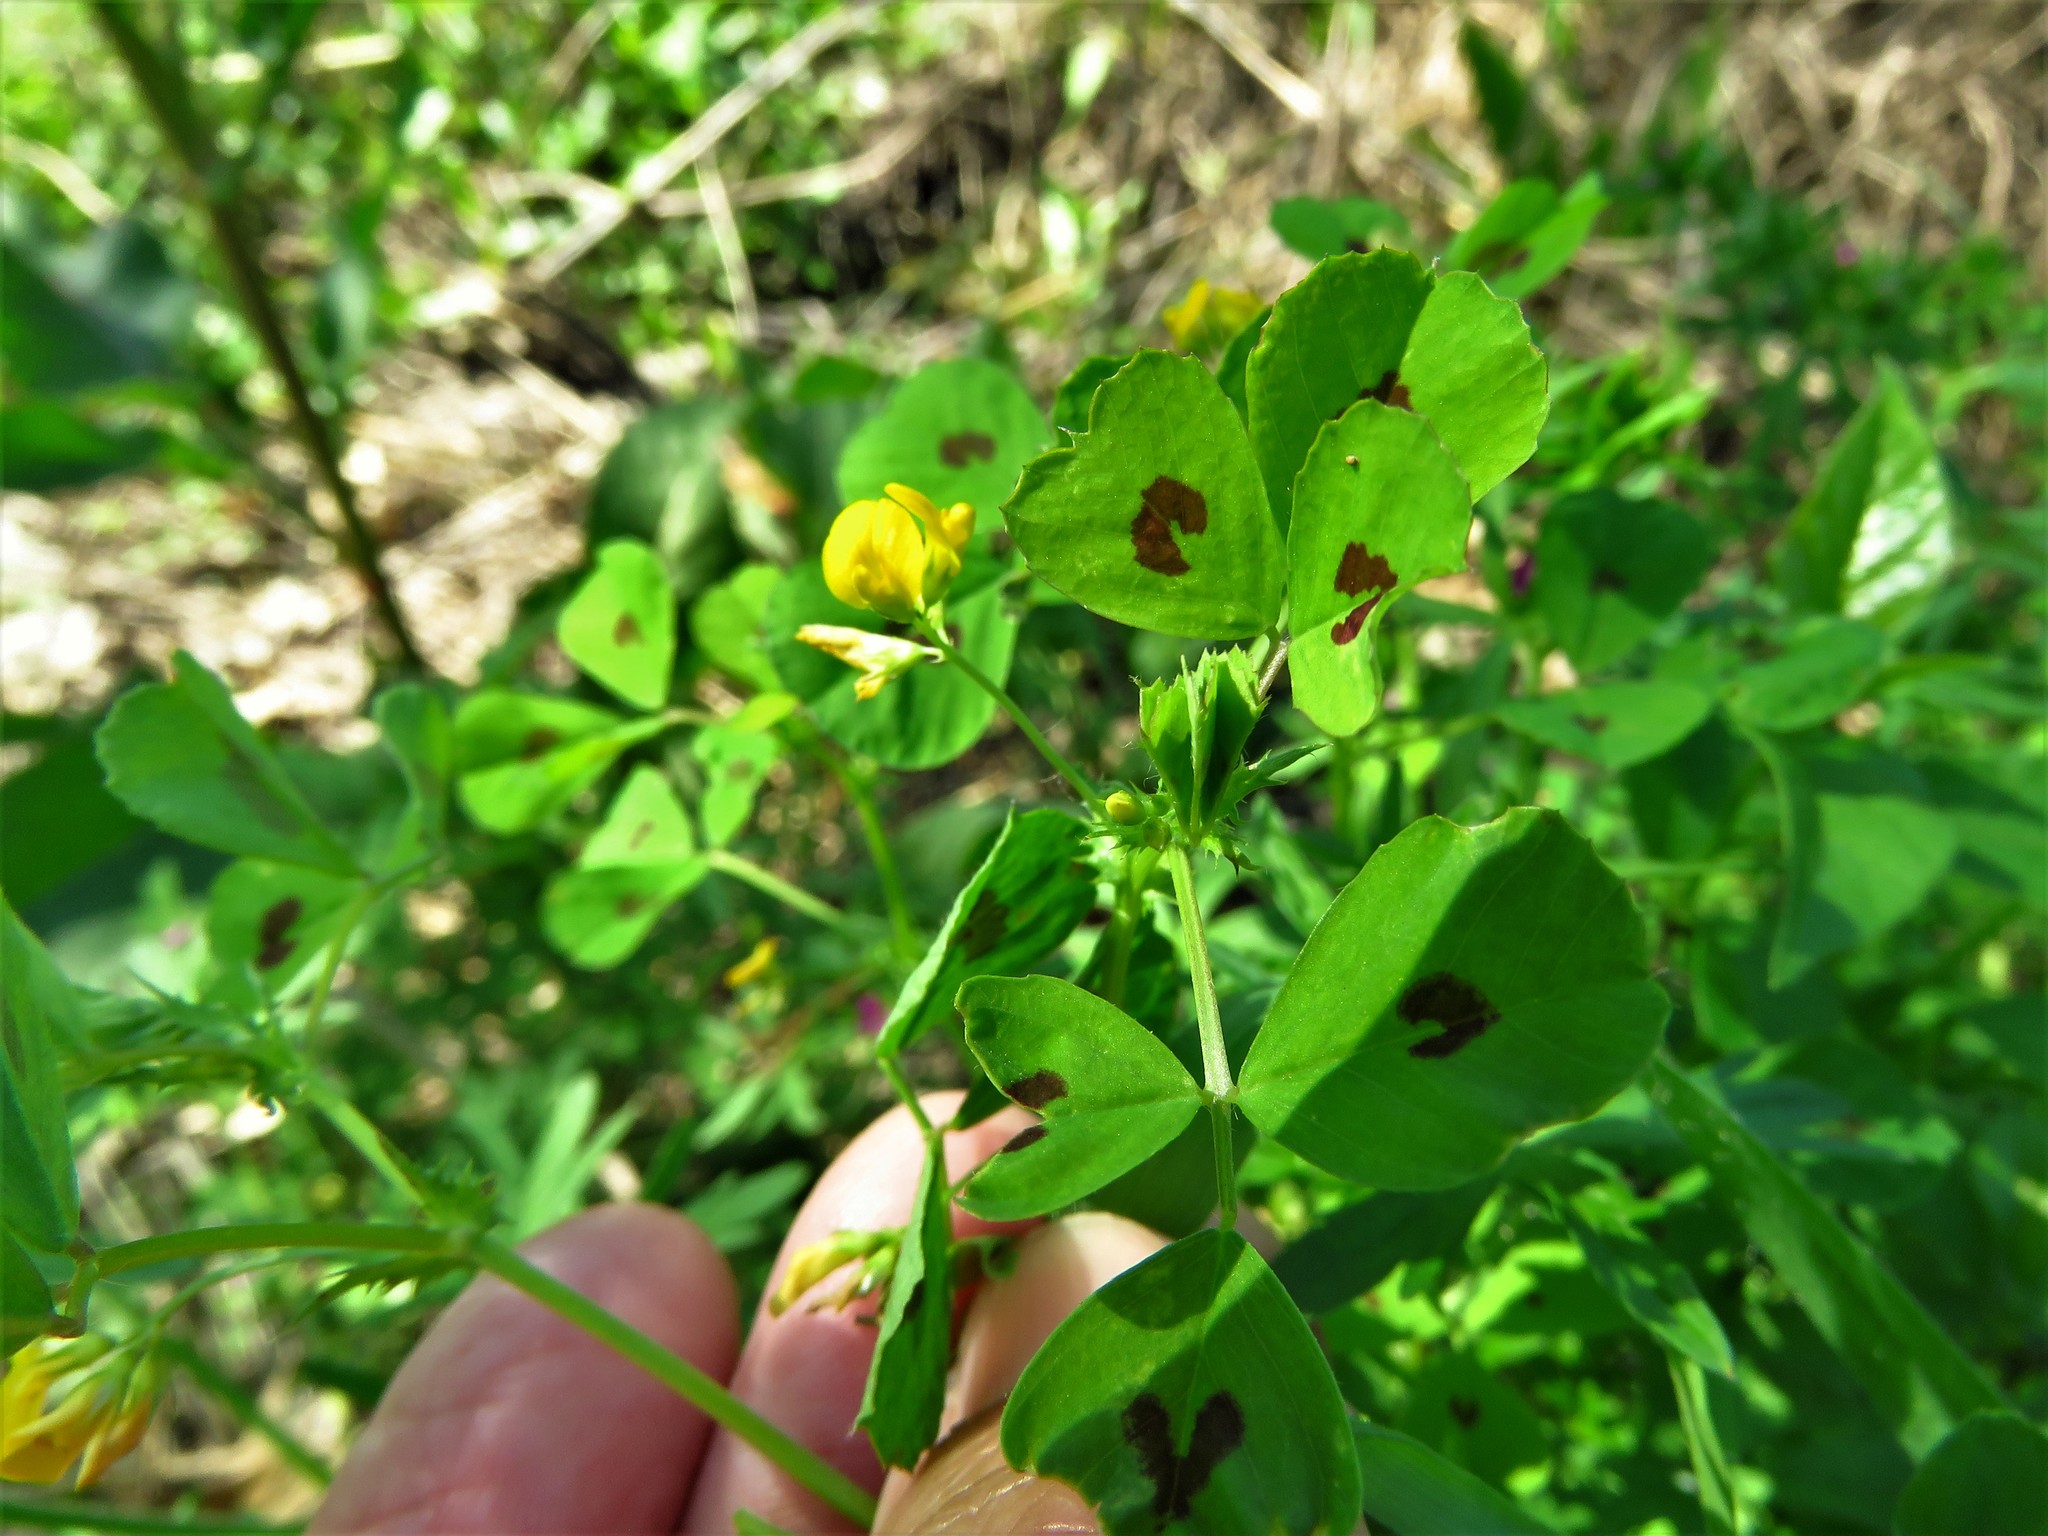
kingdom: Plantae
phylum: Tracheophyta
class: Magnoliopsida
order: Fabales
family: Fabaceae
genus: Medicago
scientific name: Medicago arabica
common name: Spotted medick
